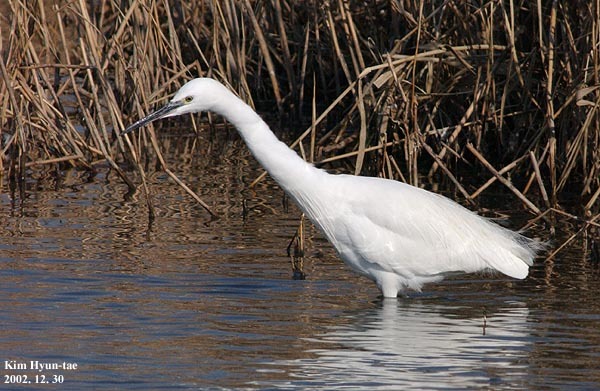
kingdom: Animalia
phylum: Chordata
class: Aves
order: Pelecaniformes
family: Ardeidae
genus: Egretta
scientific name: Egretta garzetta
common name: Little egret
